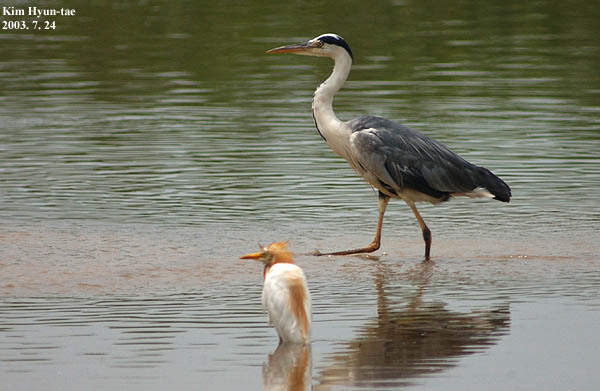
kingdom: Animalia
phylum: Chordata
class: Aves
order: Pelecaniformes
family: Ardeidae
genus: Ardea
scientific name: Ardea cinerea
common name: Grey heron
